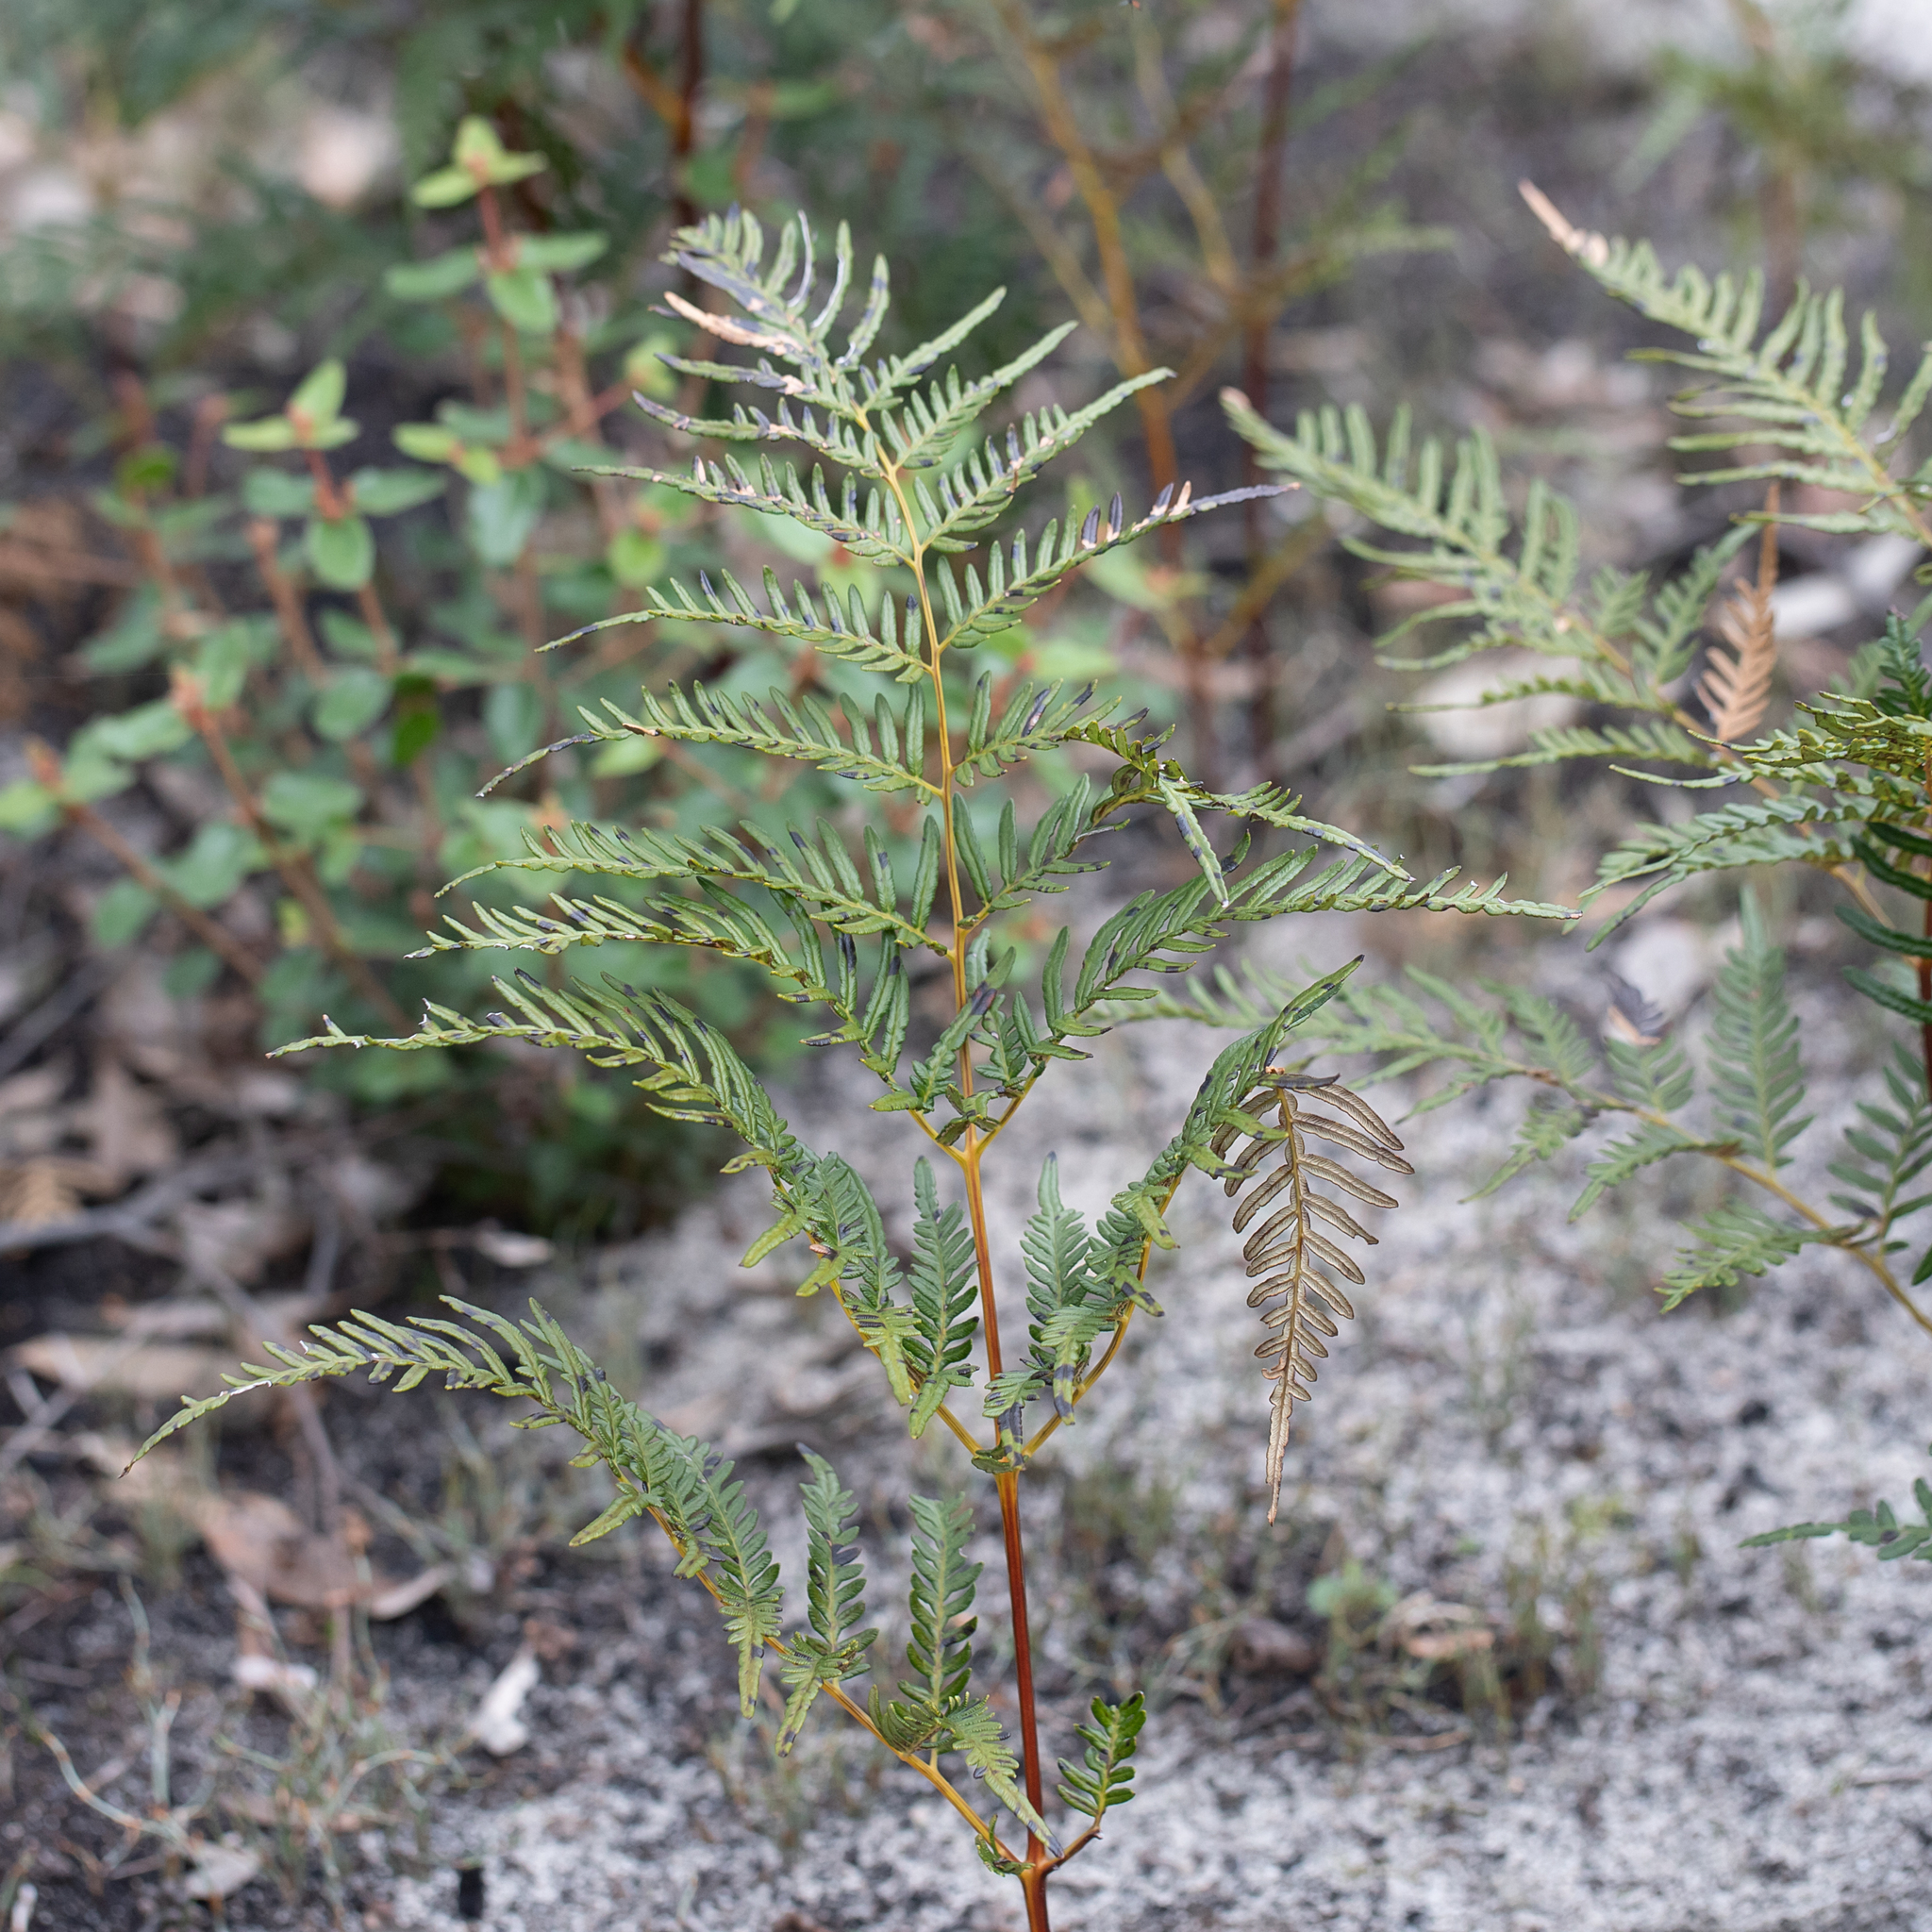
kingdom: Plantae
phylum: Tracheophyta
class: Polypodiopsida
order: Polypodiales
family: Dennstaedtiaceae
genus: Pteridium
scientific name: Pteridium esculentum
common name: Bracken fern
